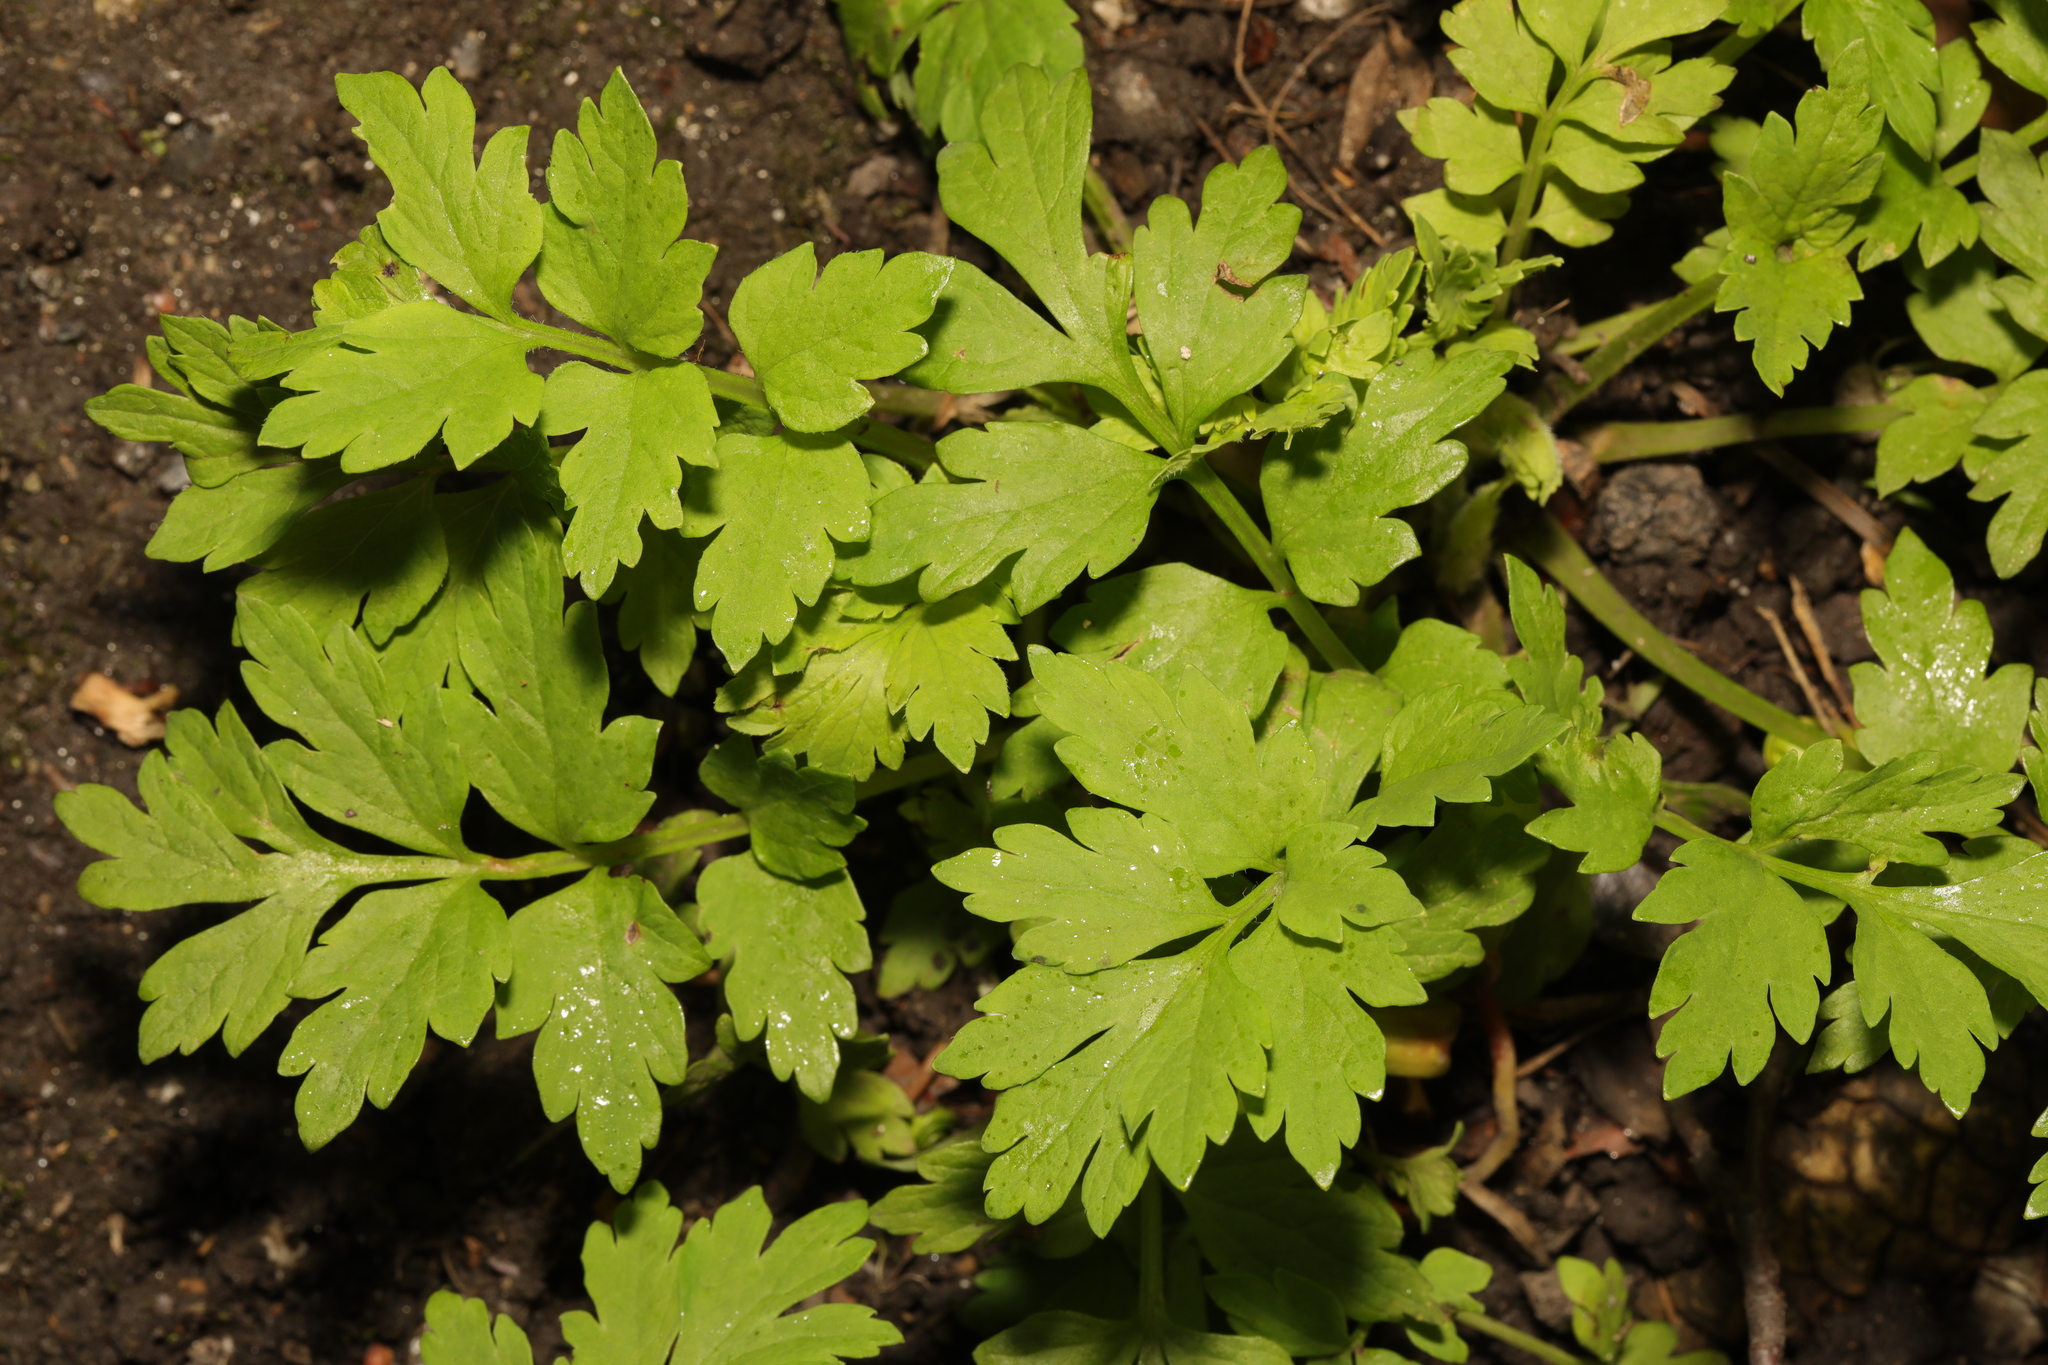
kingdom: Plantae
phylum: Tracheophyta
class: Magnoliopsida
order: Ranunculales
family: Papaveraceae
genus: Papaver
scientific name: Papaver cambricum
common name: Poppy
